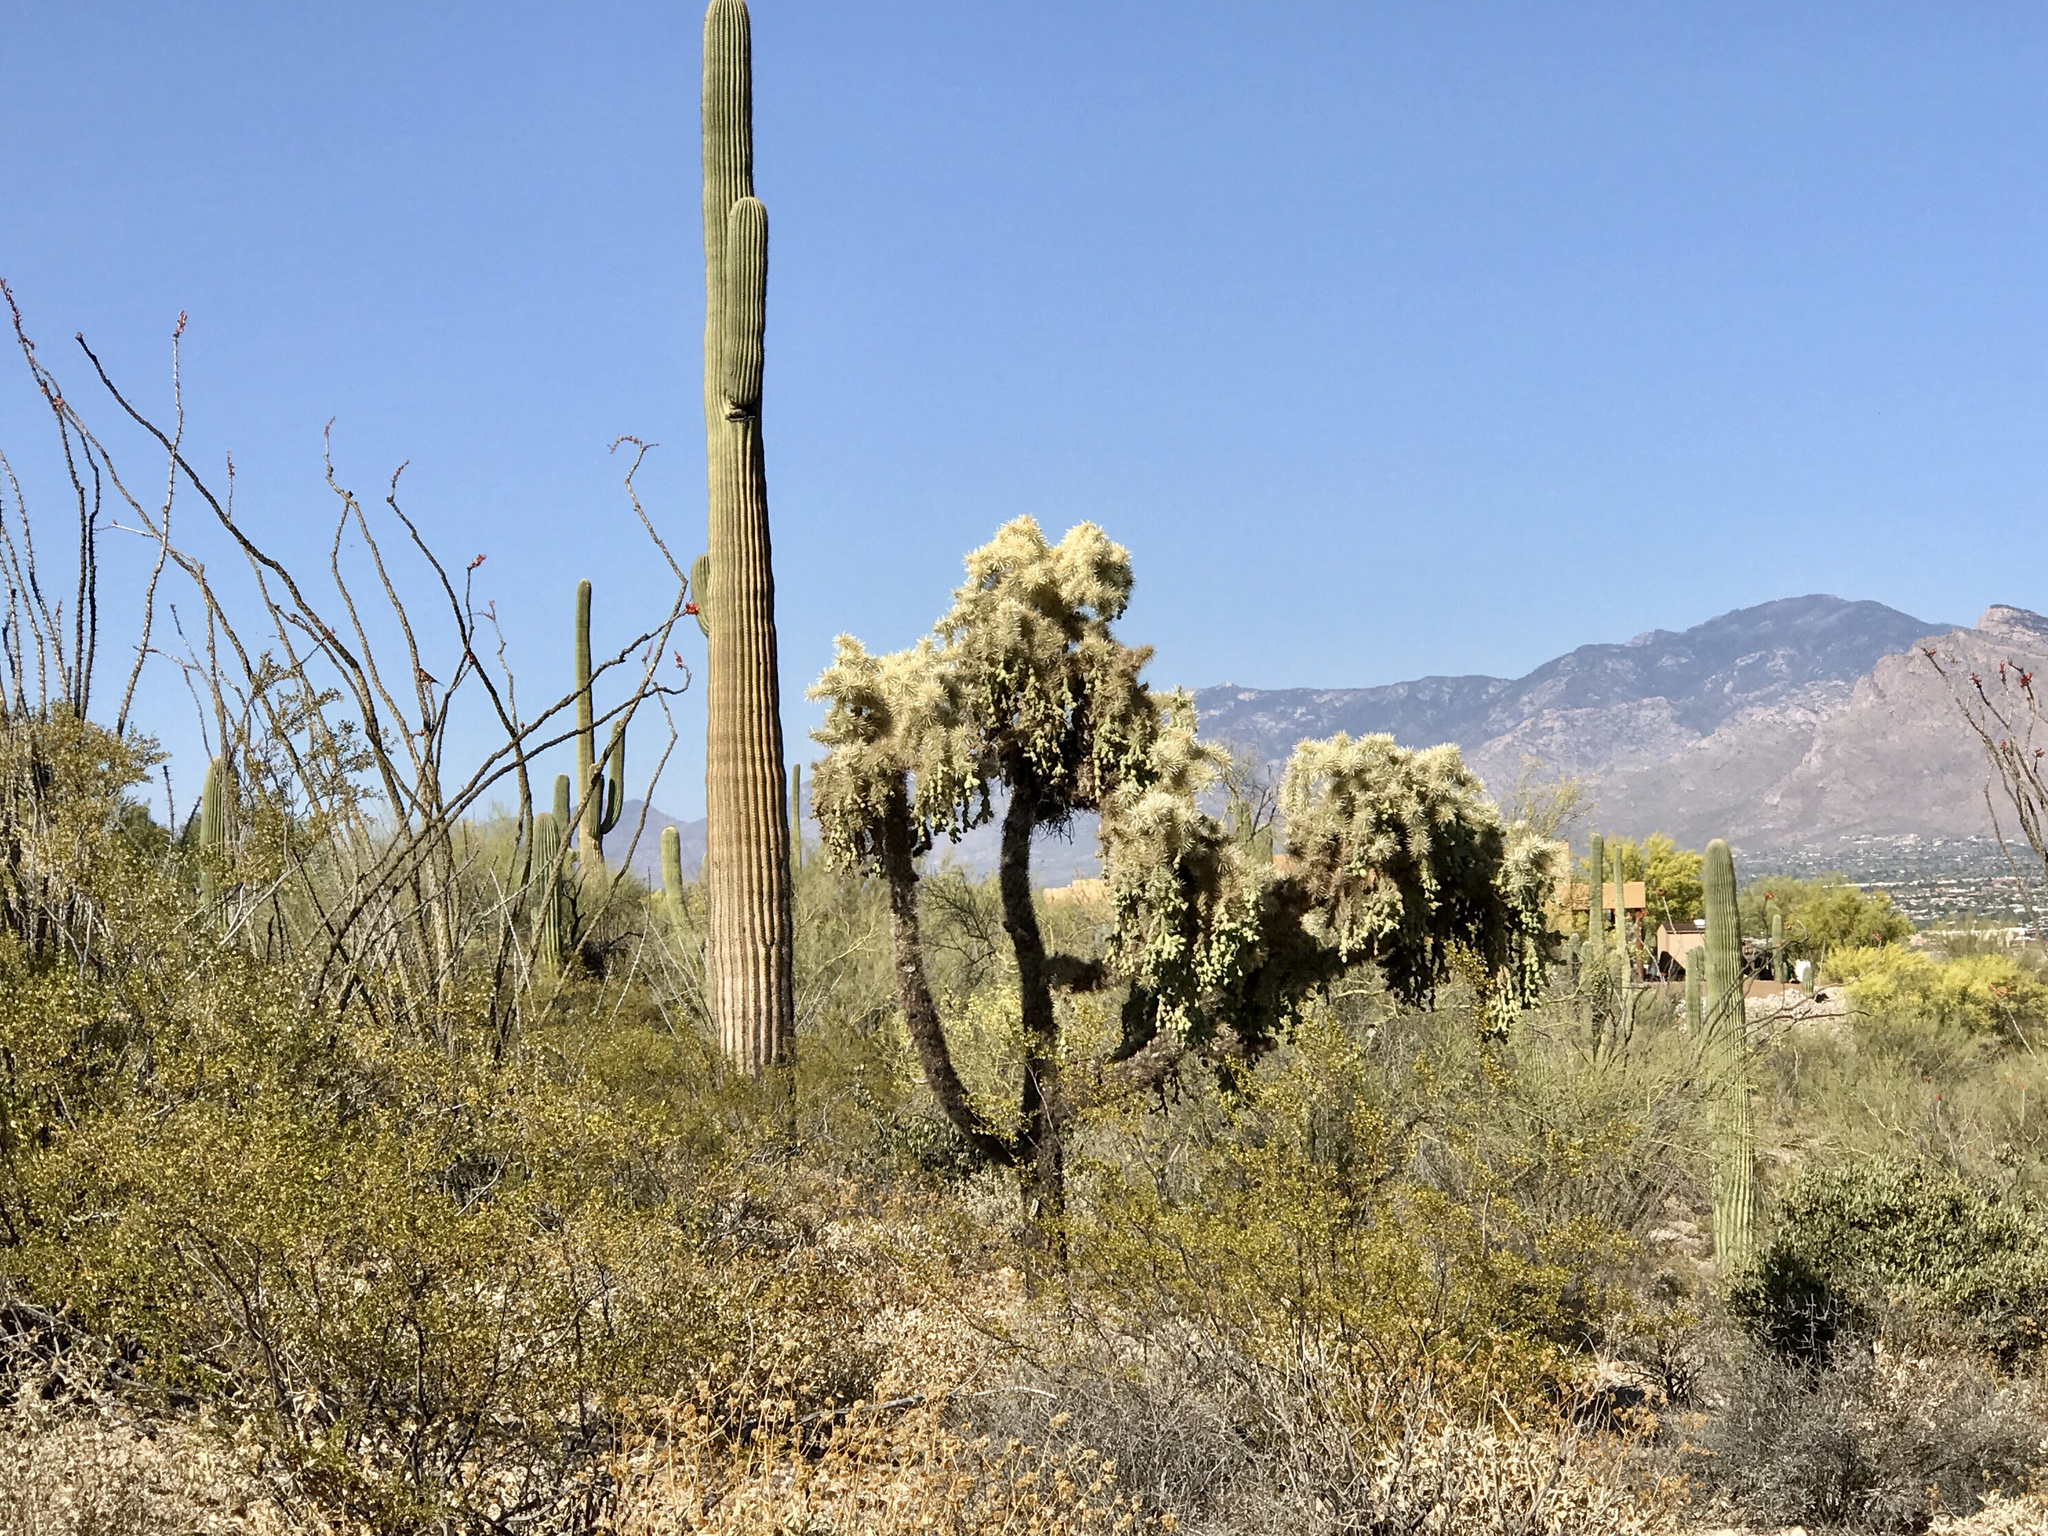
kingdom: Plantae
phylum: Tracheophyta
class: Magnoliopsida
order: Caryophyllales
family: Cactaceae
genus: Cylindropuntia
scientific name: Cylindropuntia fulgida
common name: Jumping cholla
